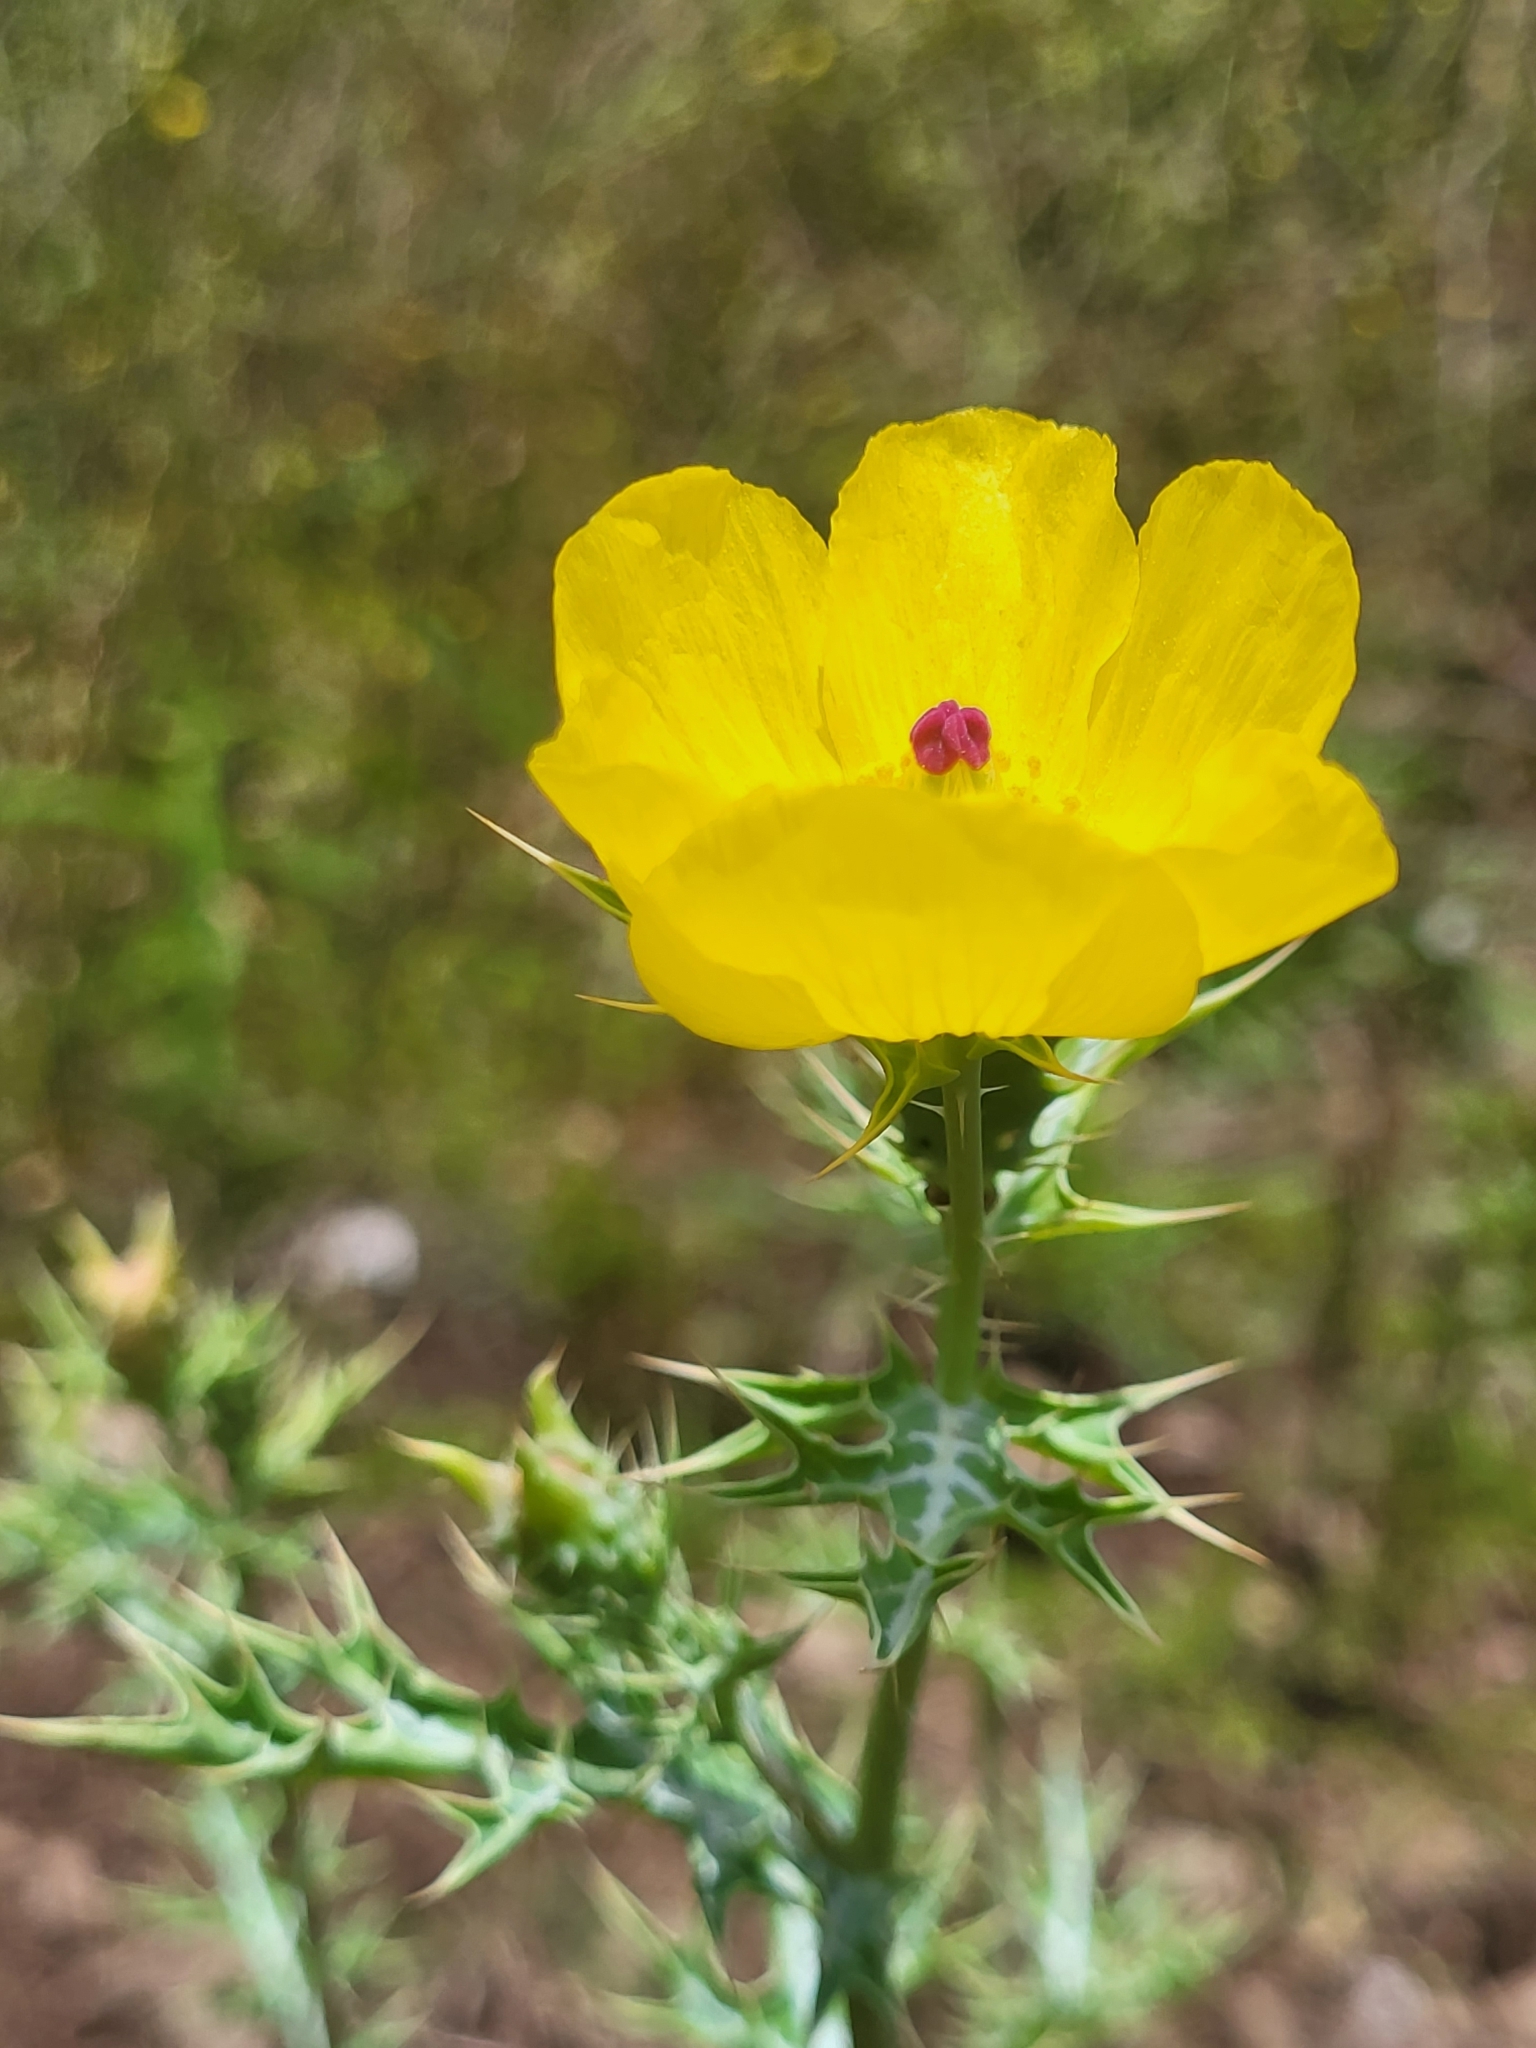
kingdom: Plantae
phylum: Tracheophyta
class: Magnoliopsida
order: Ranunculales
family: Papaveraceae
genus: Argemone
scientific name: Argemone mexicana
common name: Mexican poppy
